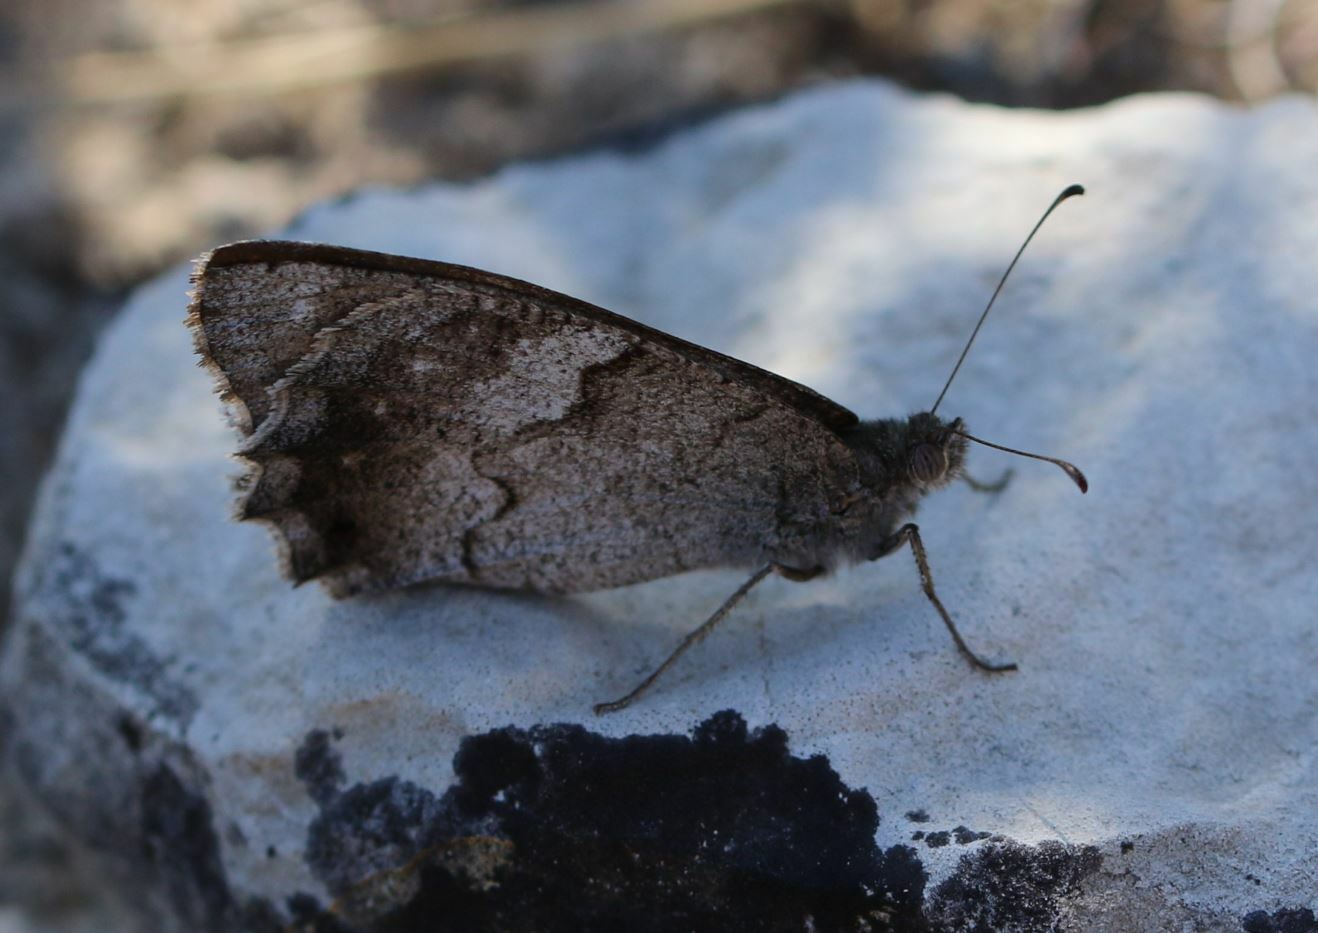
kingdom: Animalia
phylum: Arthropoda
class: Insecta
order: Lepidoptera
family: Nymphalidae
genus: Hipparchia
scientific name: Hipparchia statilinus
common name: Tree grayling
